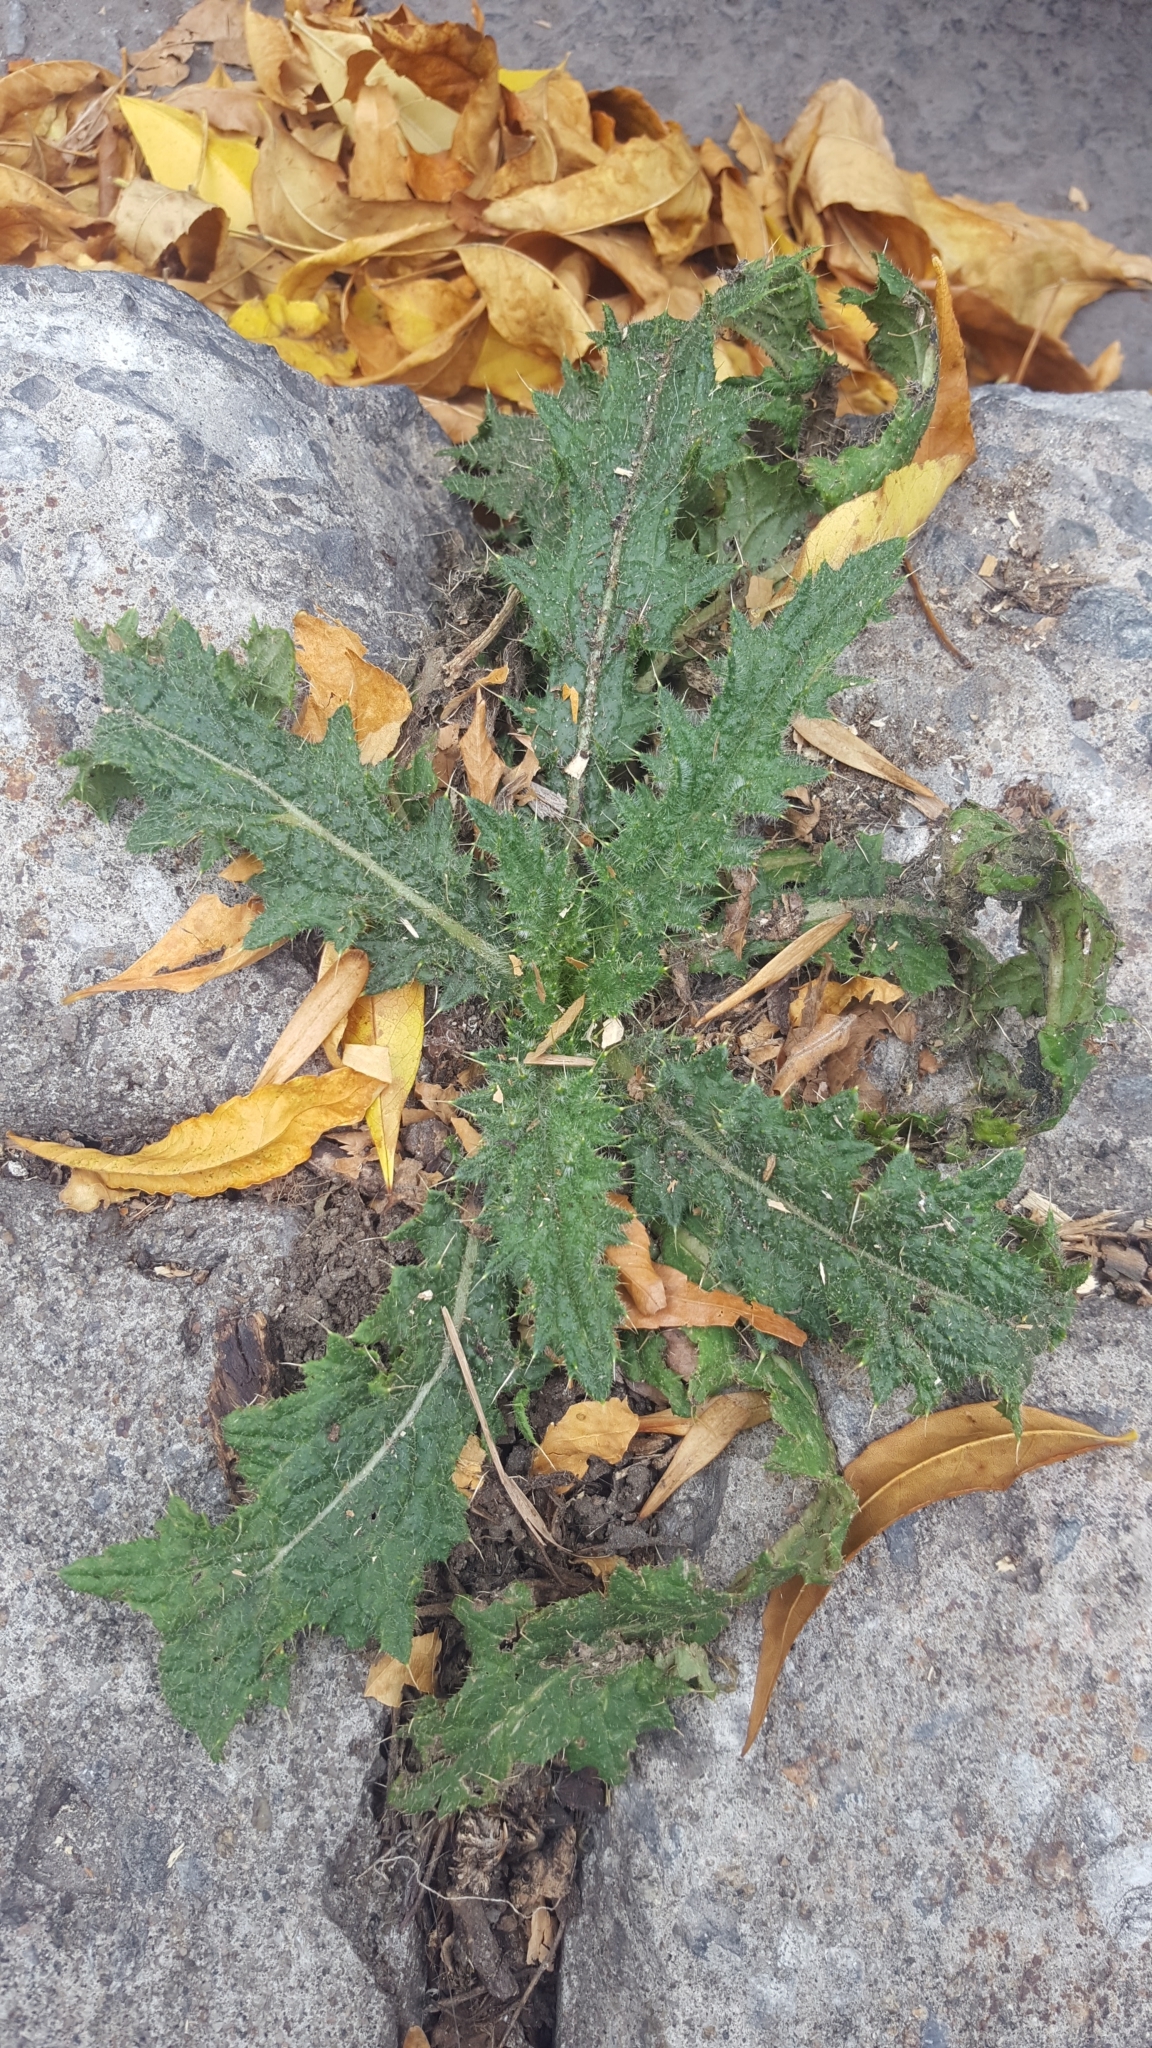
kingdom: Plantae
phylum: Tracheophyta
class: Magnoliopsida
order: Asterales
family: Asteraceae
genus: Cirsium
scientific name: Cirsium vulgare
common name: Bull thistle
